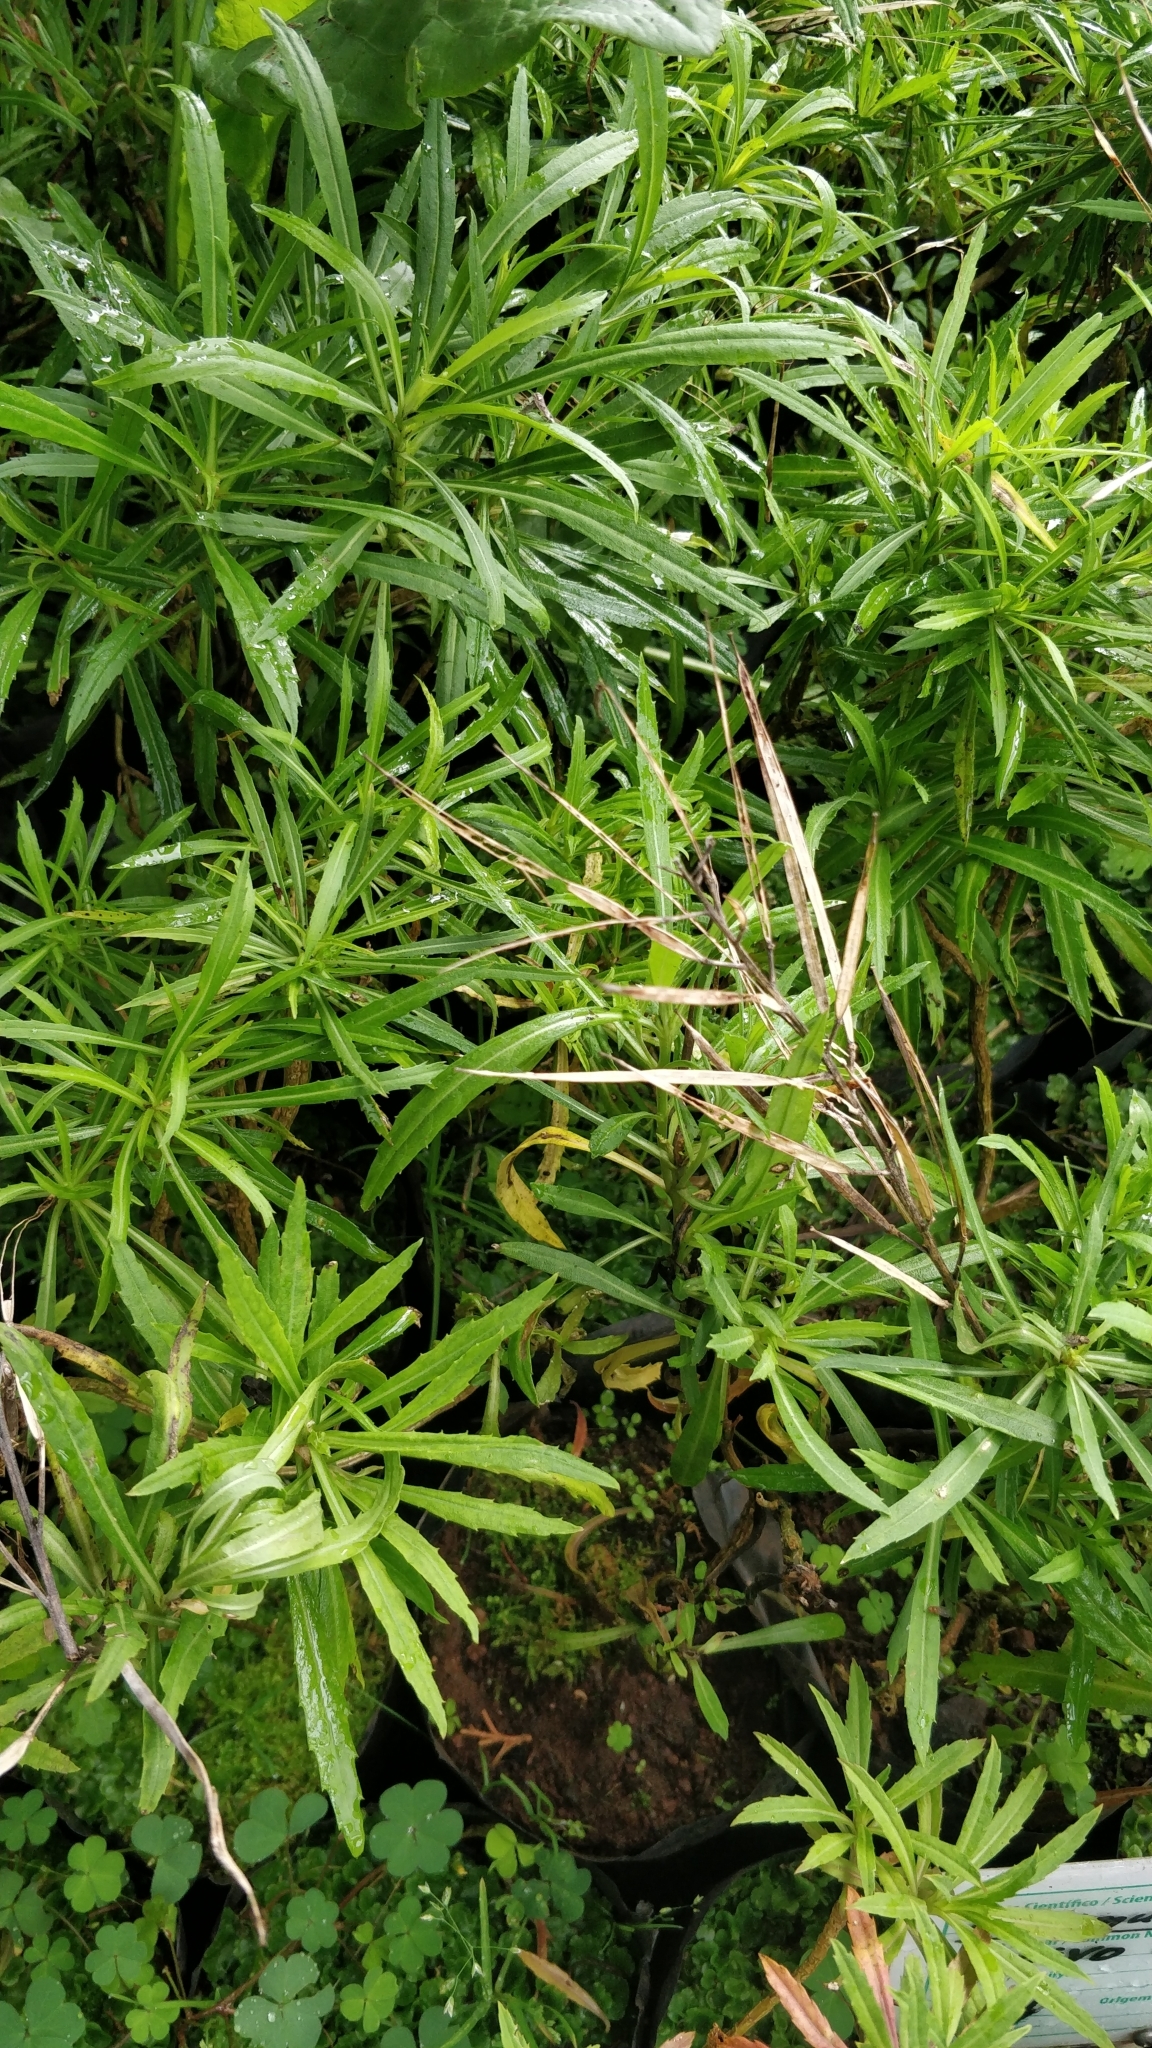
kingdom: Plantae
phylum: Tracheophyta
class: Magnoliopsida
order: Brassicales
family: Brassicaceae
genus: Erysimum
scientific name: Erysimum bicolor
